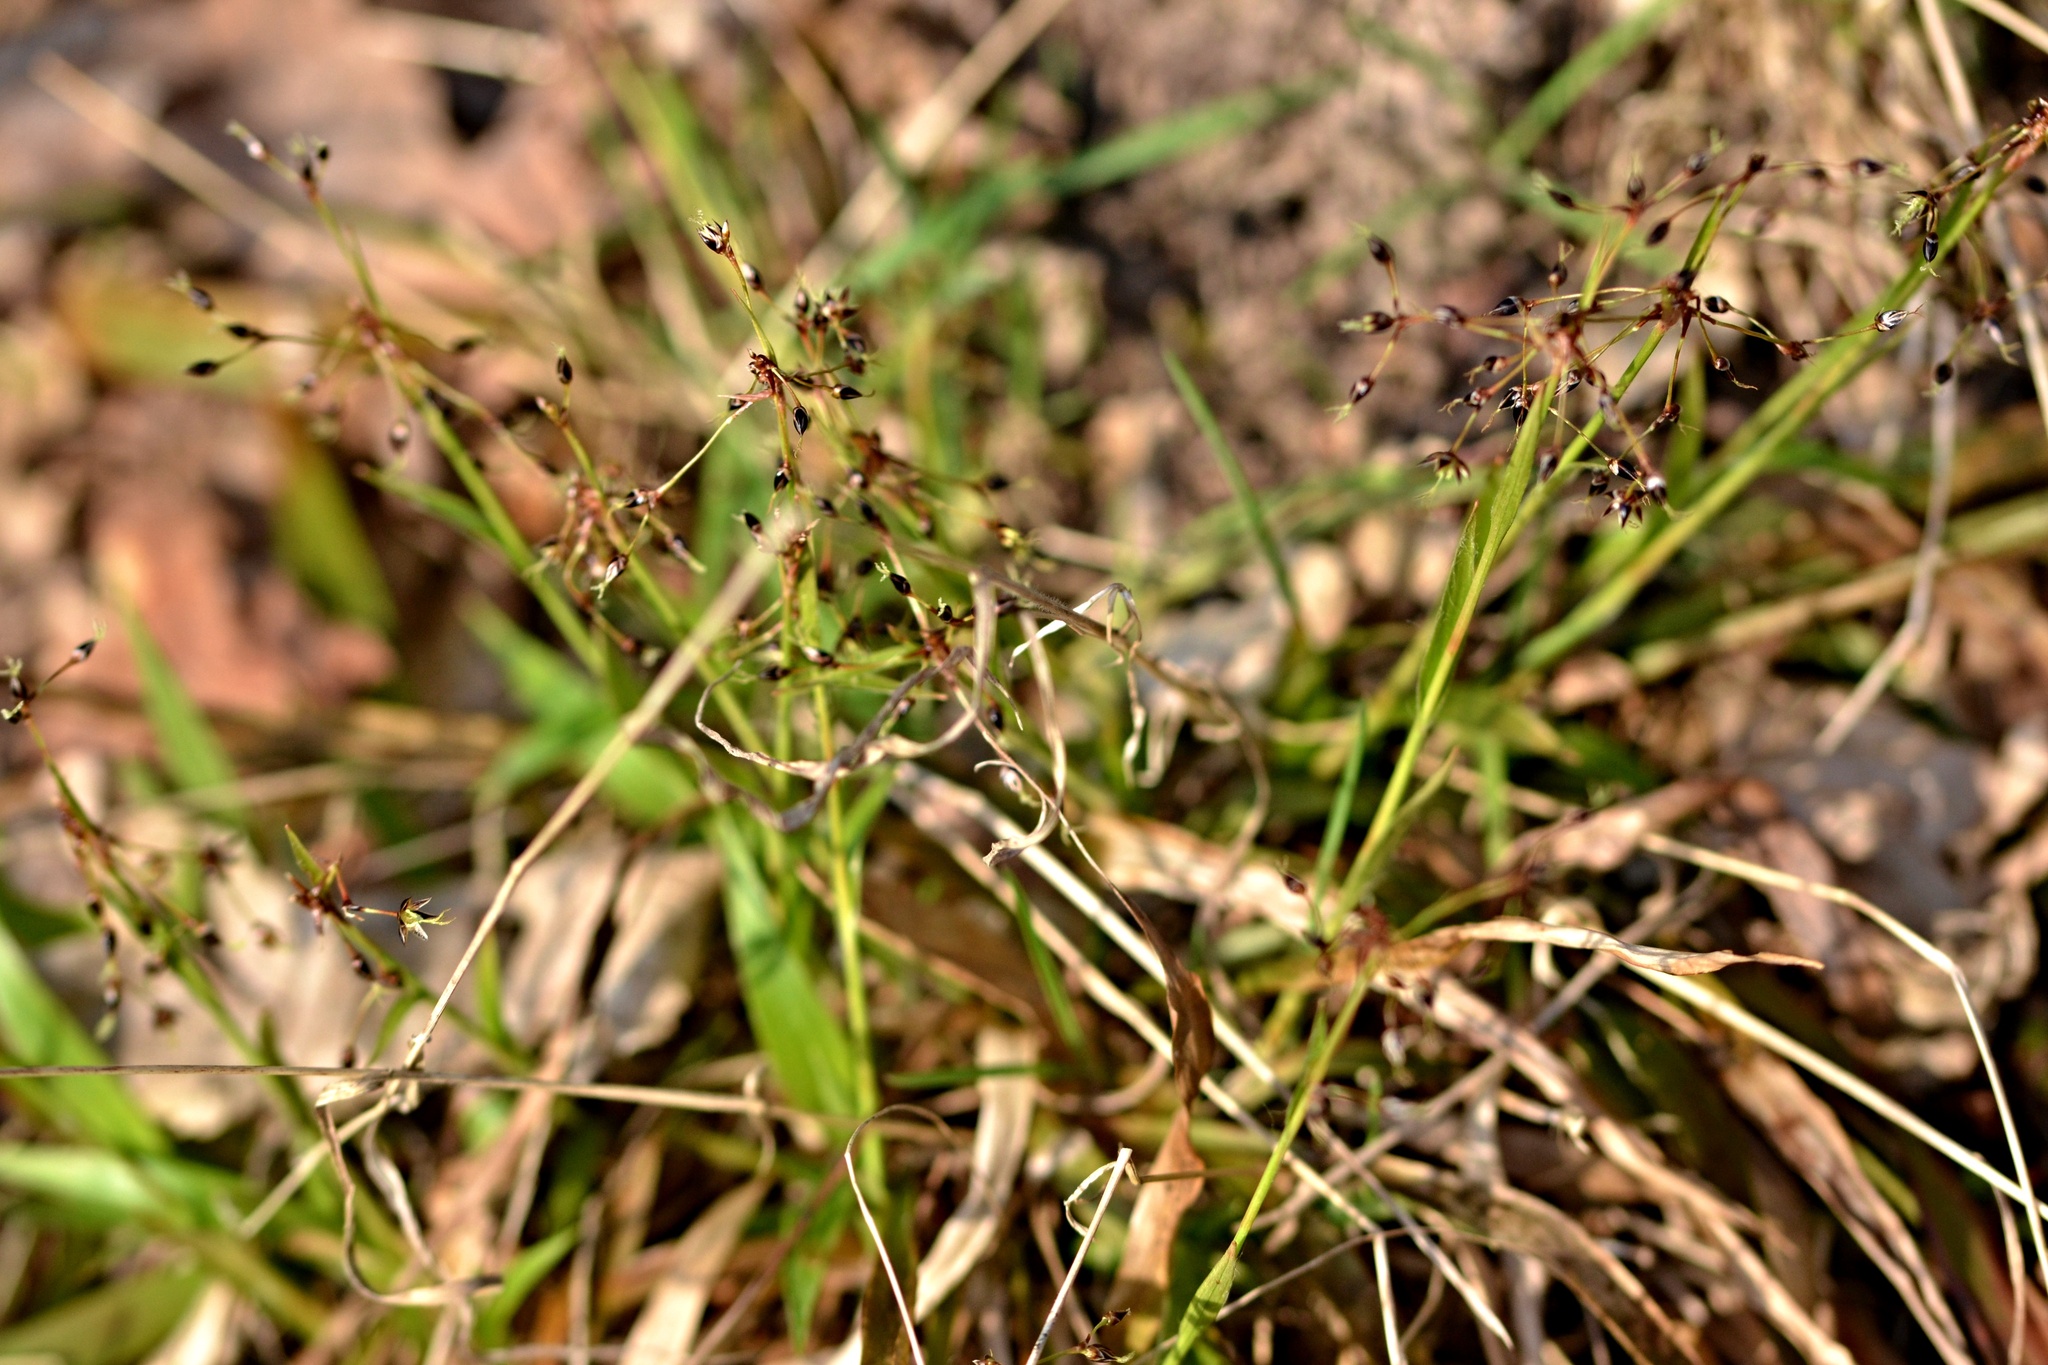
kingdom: Plantae
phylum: Tracheophyta
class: Liliopsida
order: Poales
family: Juncaceae
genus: Luzula
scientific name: Luzula pilosa
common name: Hairy wood-rush
